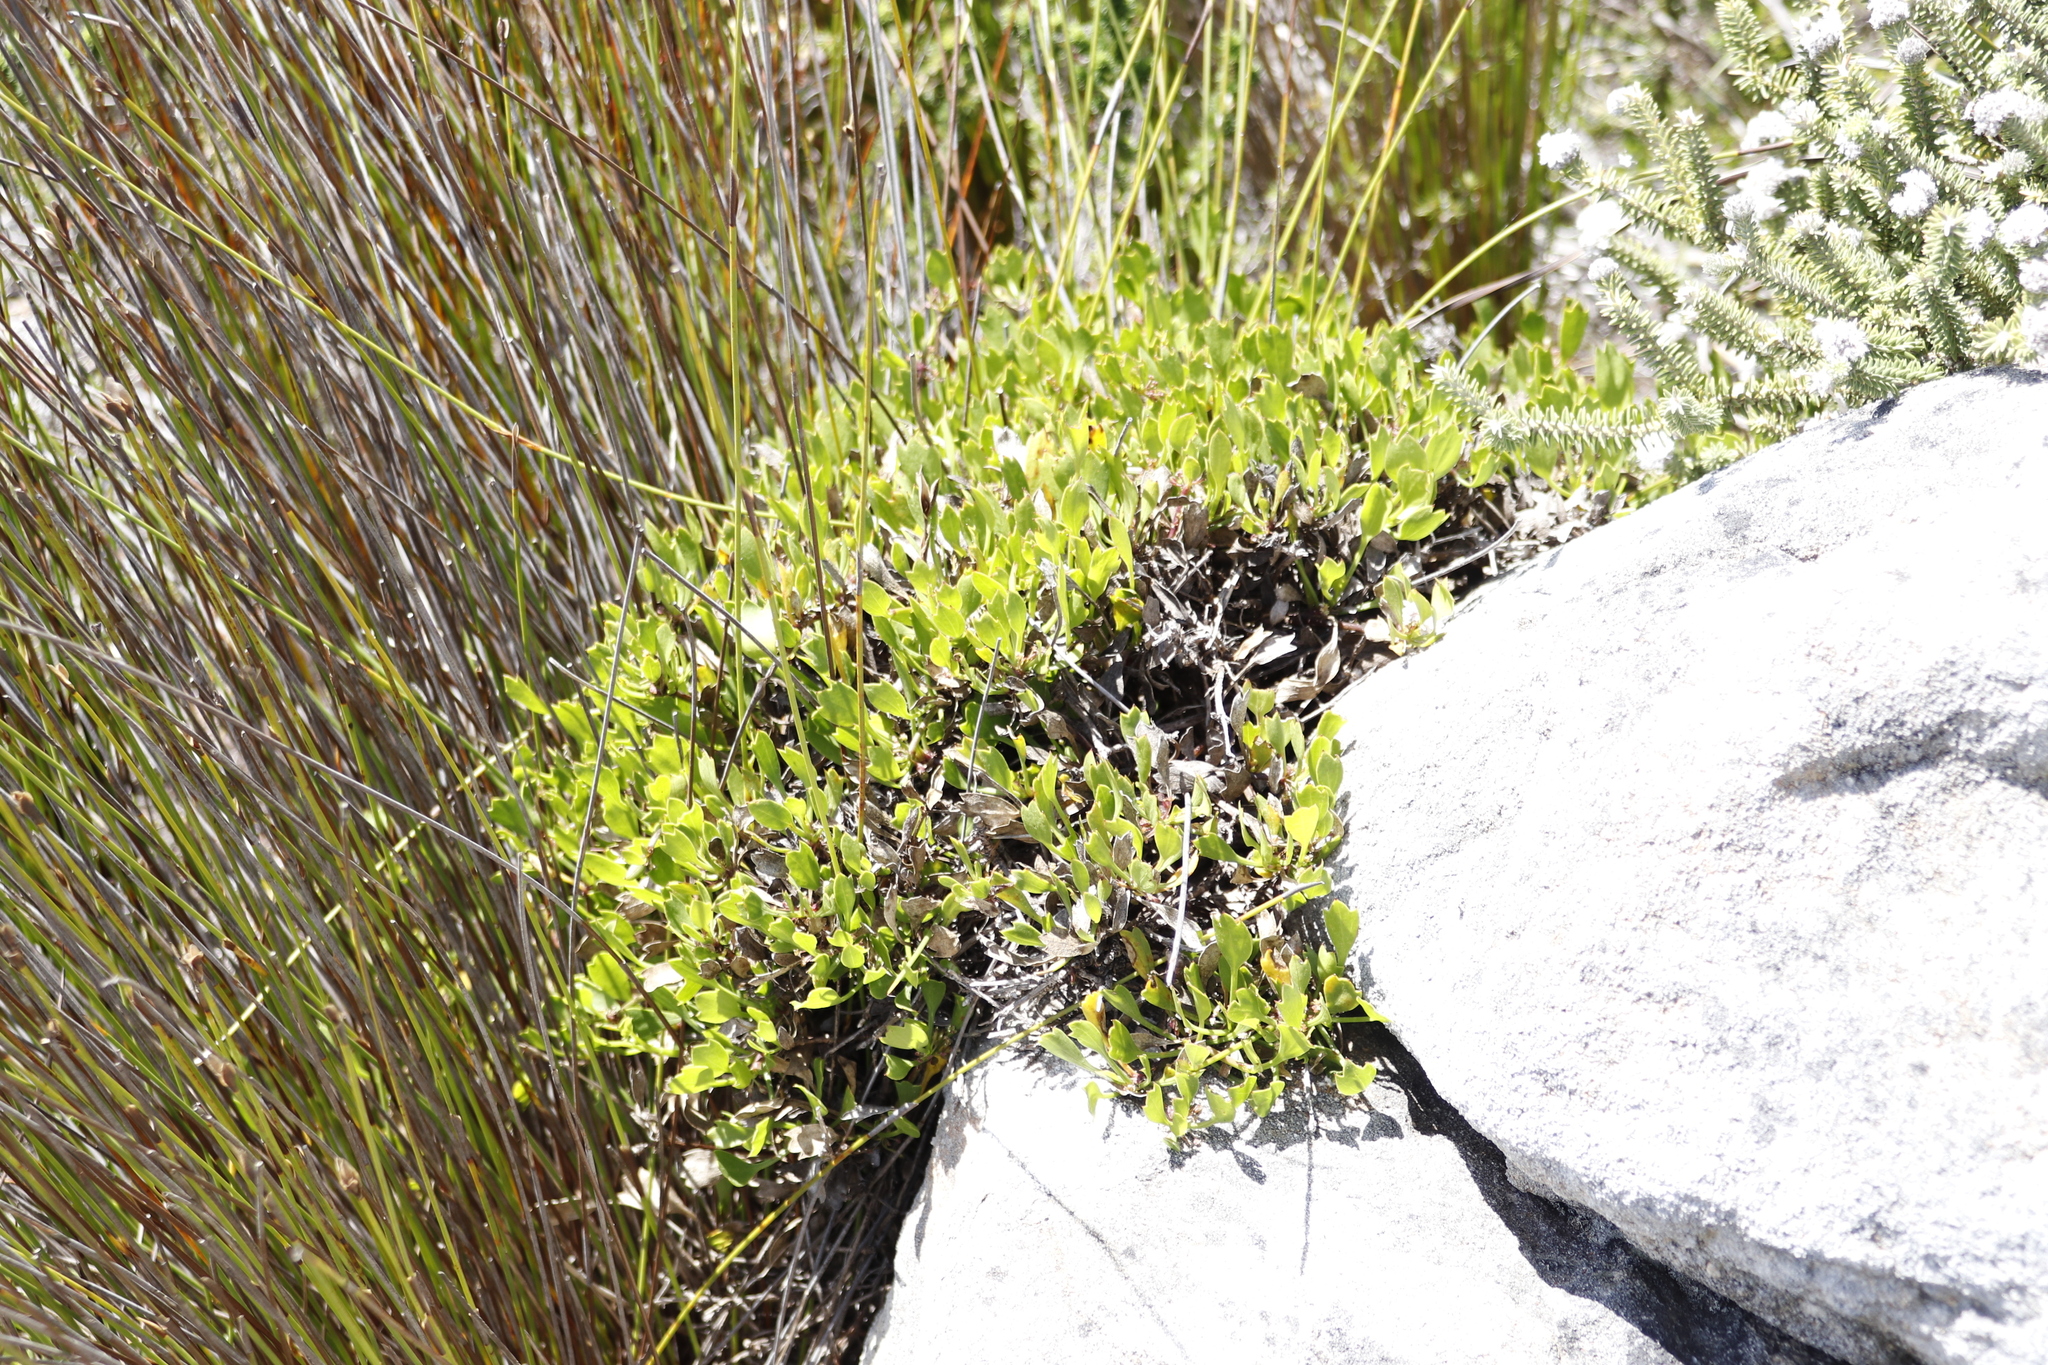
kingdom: Plantae
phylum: Tracheophyta
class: Magnoliopsida
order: Apiales
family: Apiaceae
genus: Centella
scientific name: Centella triloba
